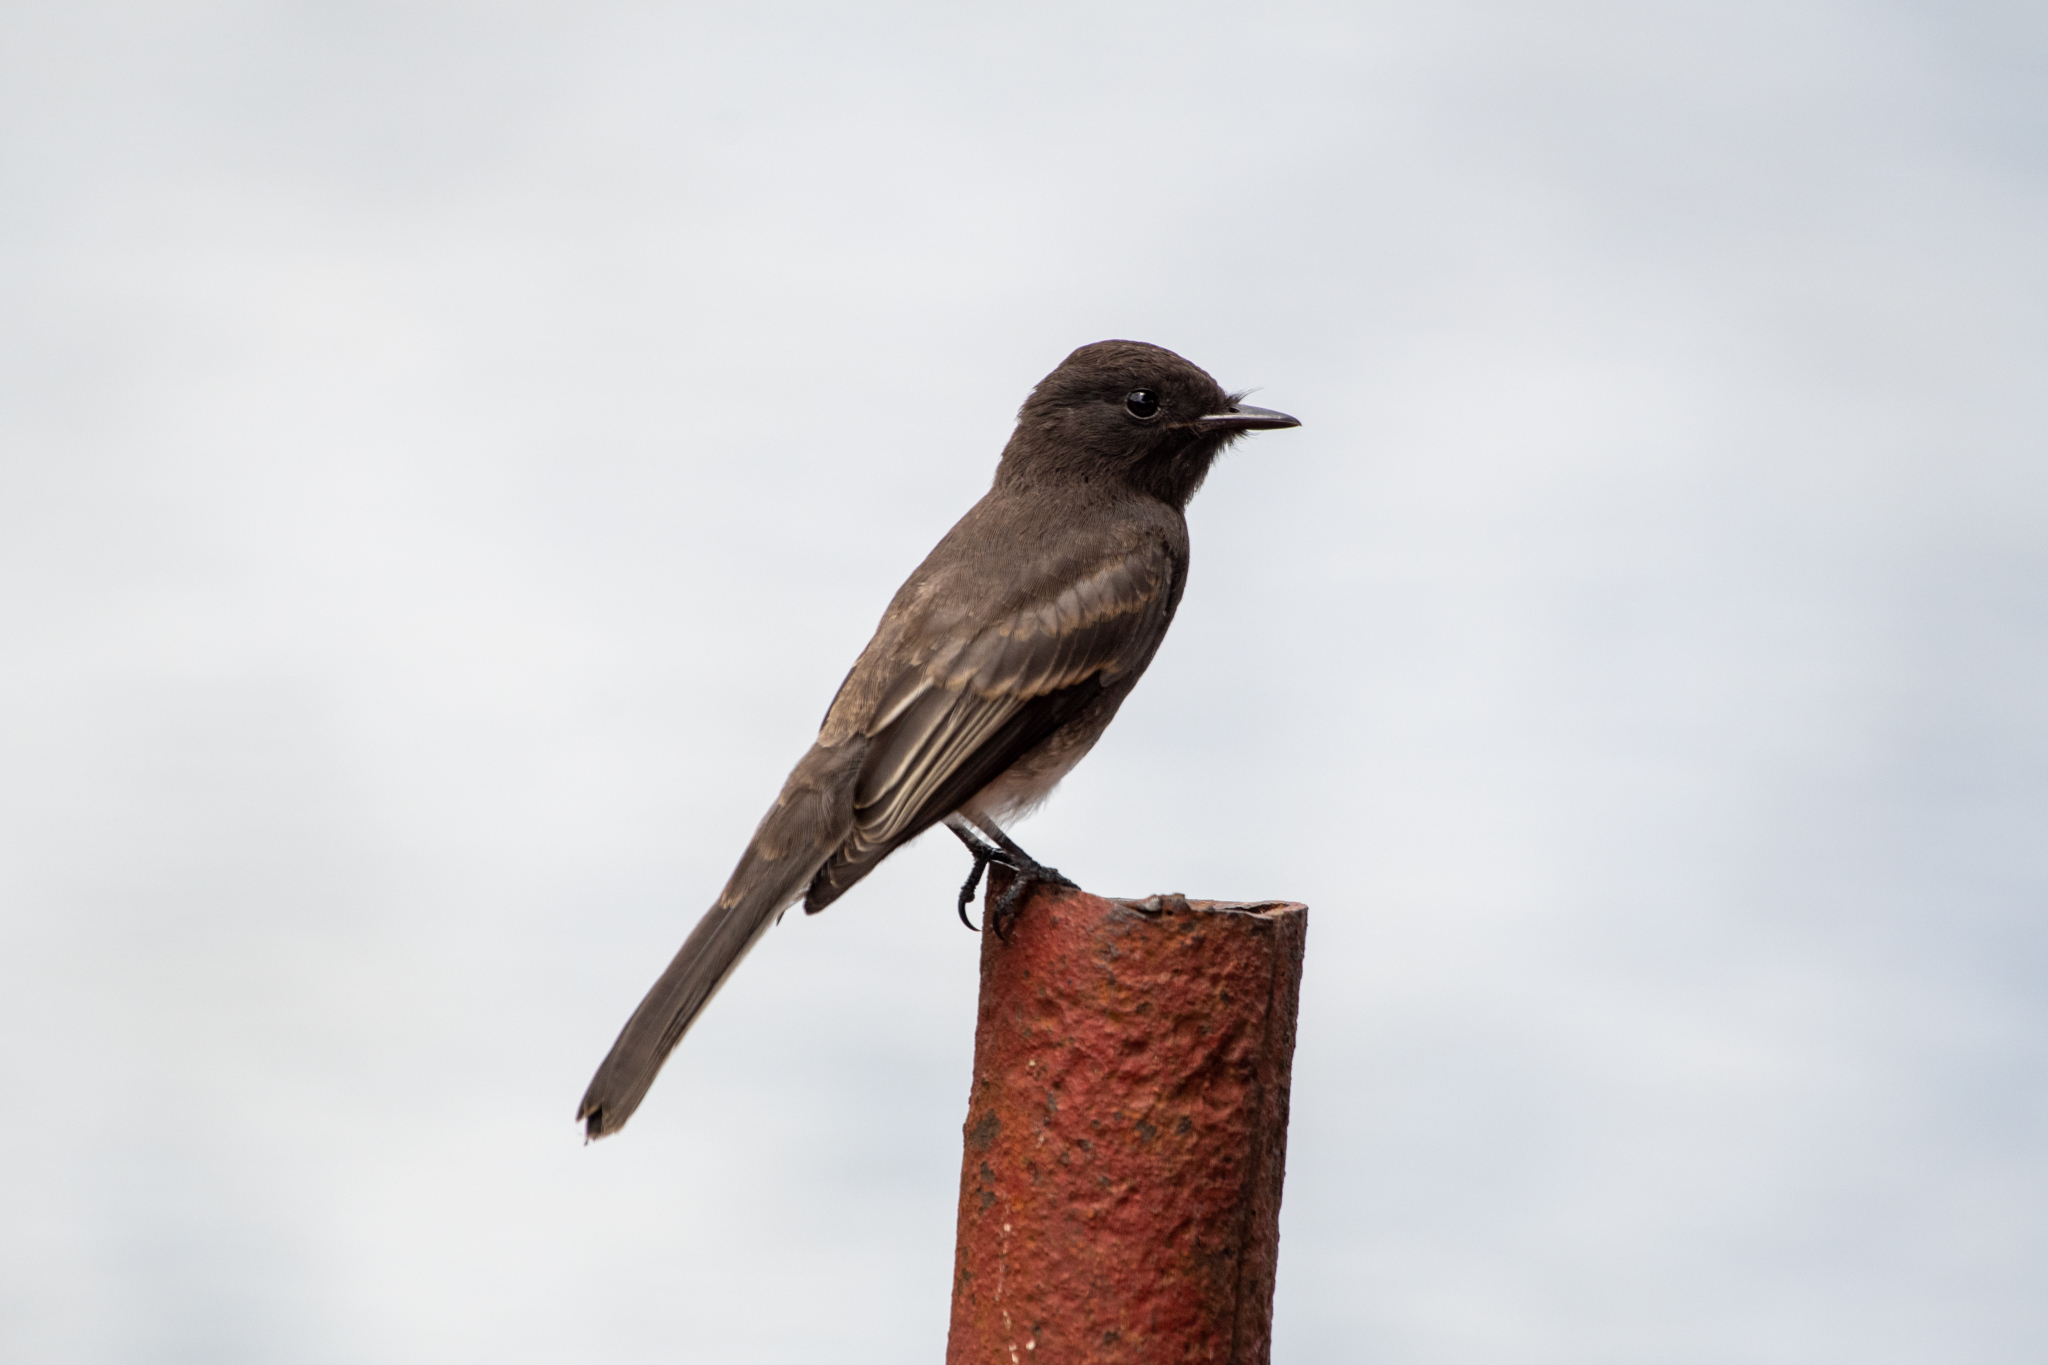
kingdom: Animalia
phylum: Chordata
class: Aves
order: Passeriformes
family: Tyrannidae
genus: Sayornis
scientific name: Sayornis nigricans
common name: Black phoebe
